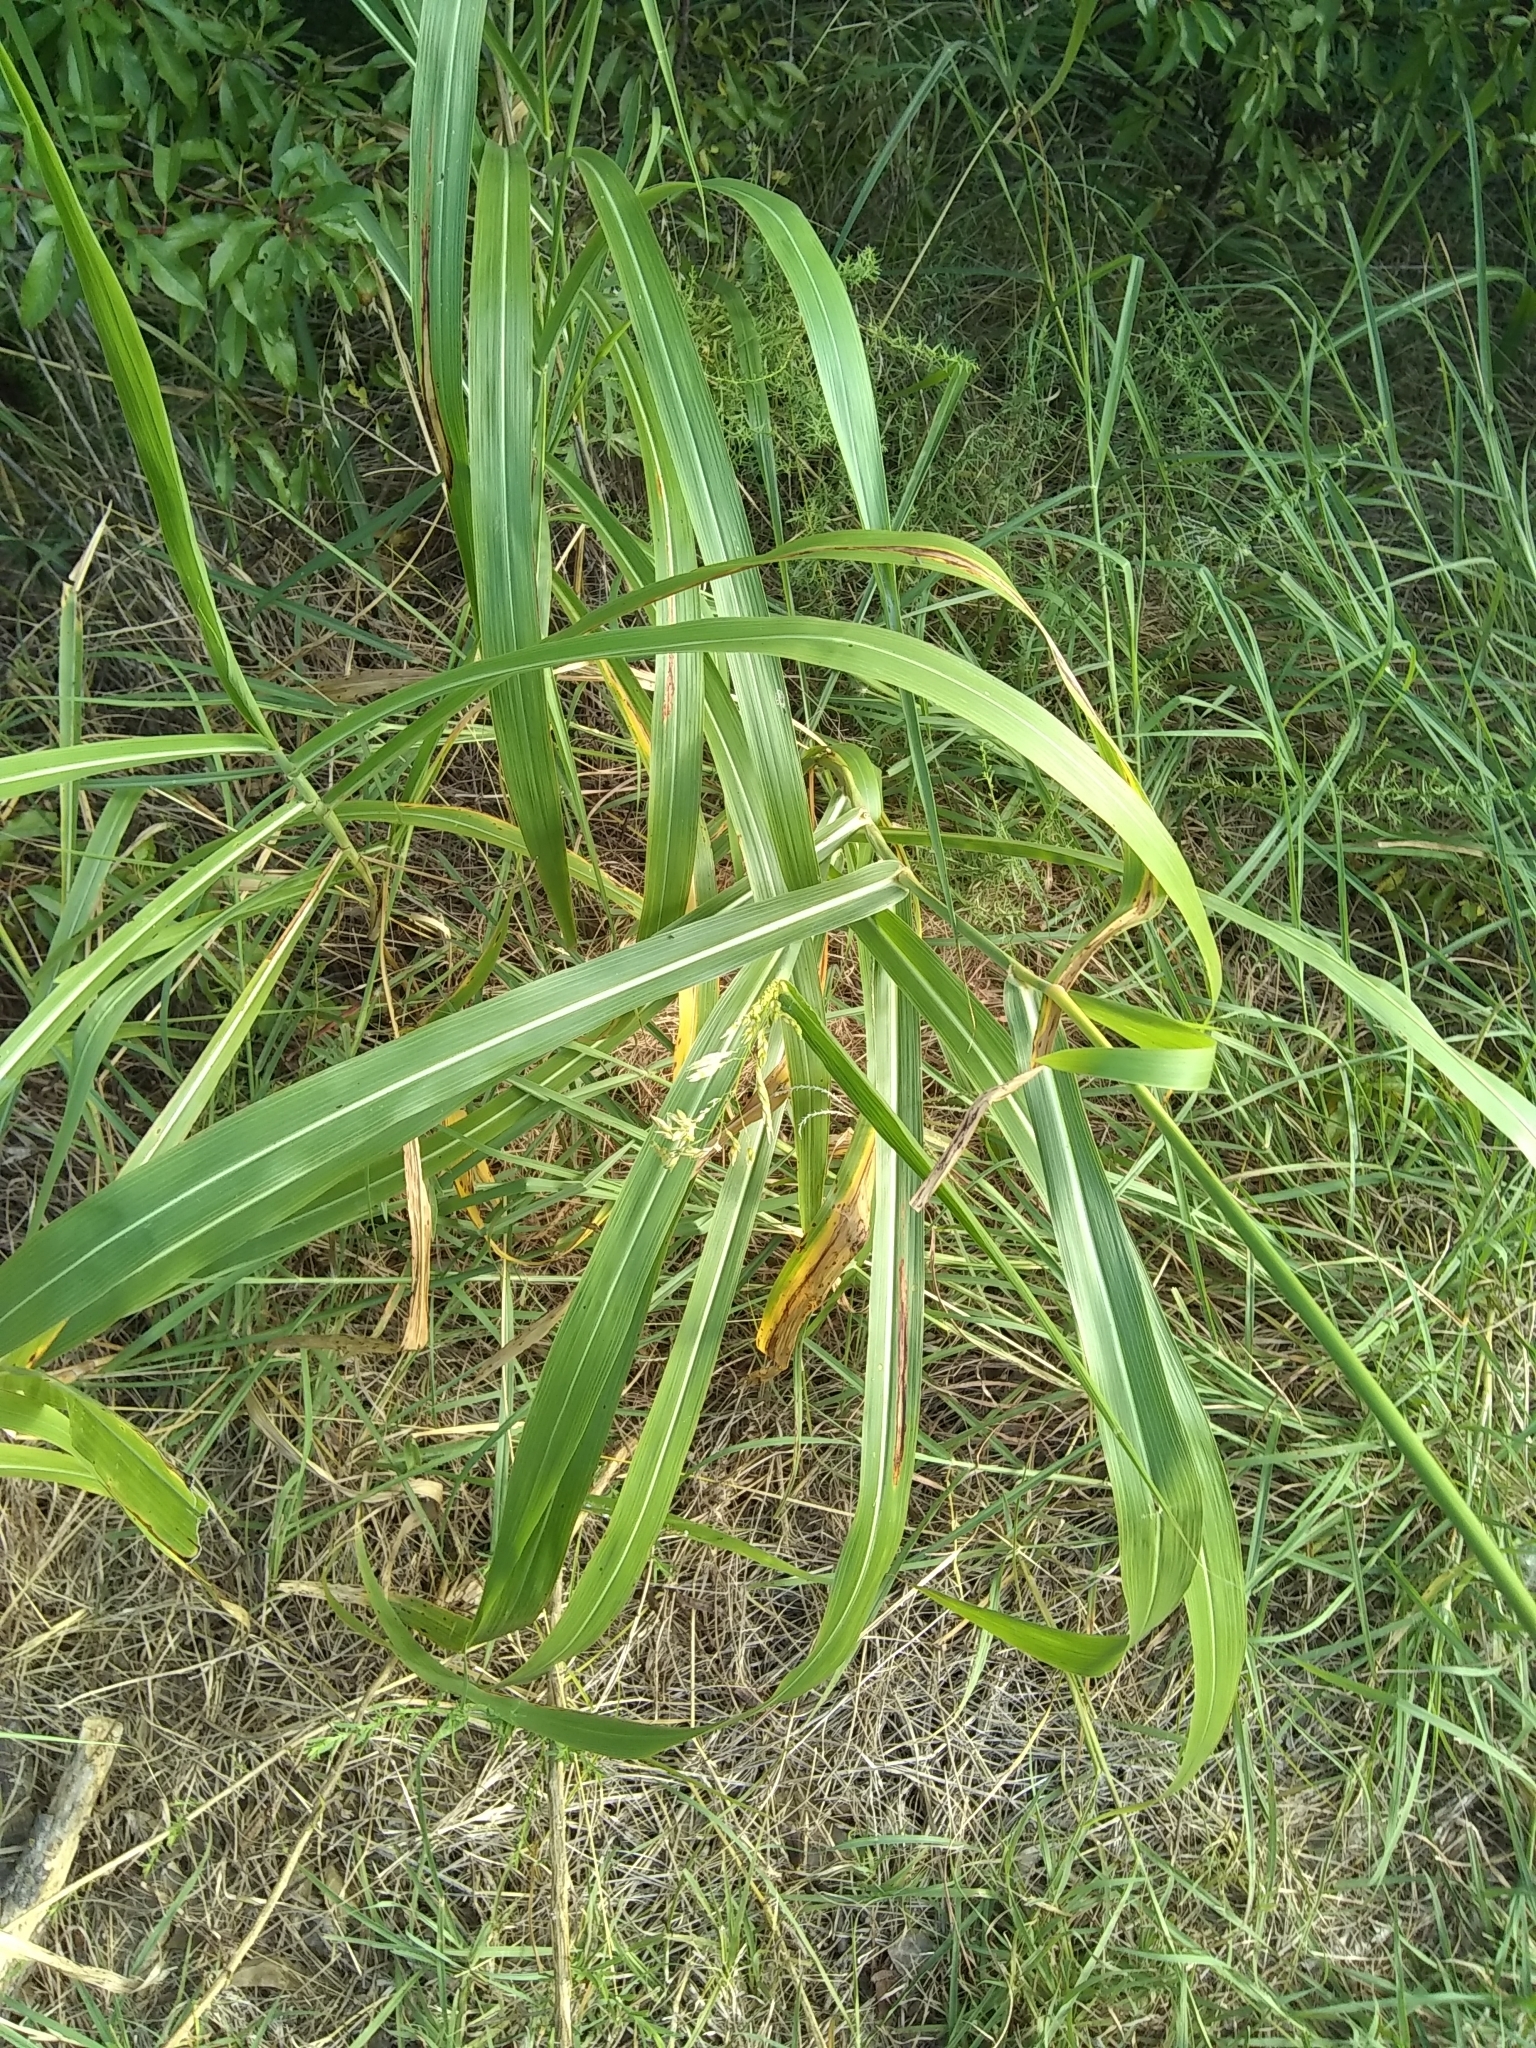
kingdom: Plantae
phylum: Tracheophyta
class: Liliopsida
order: Poales
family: Poaceae
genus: Sorghum
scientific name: Sorghum halepense
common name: Johnson-grass
